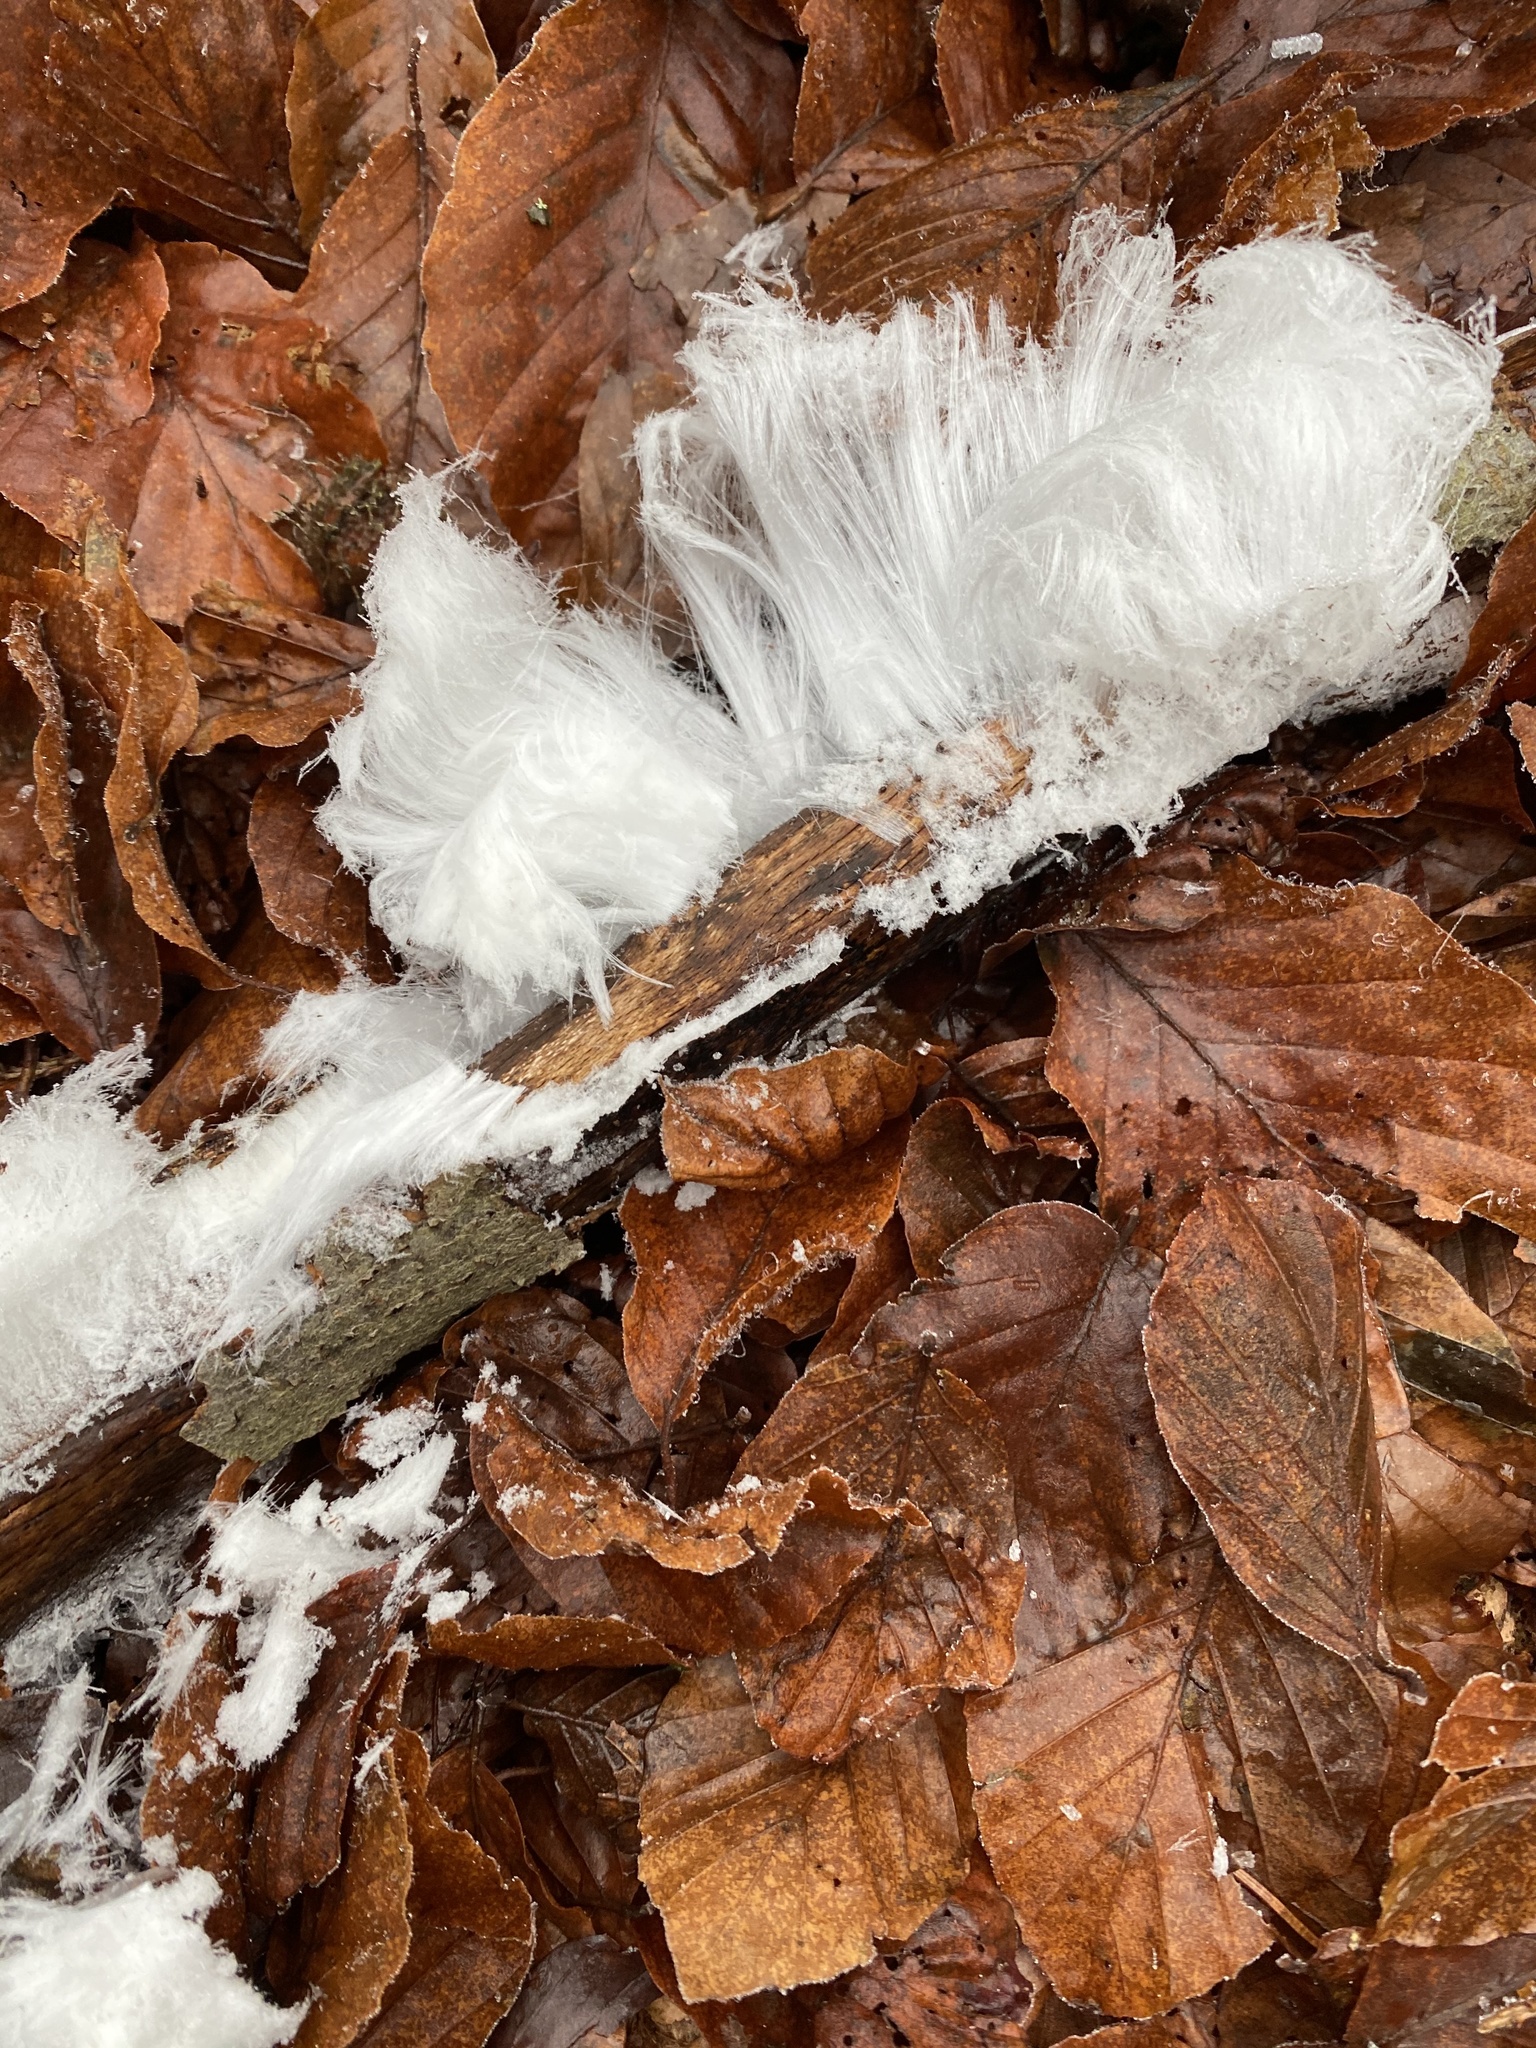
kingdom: Fungi
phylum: Basidiomycota
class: Agaricomycetes
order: Auriculariales
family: Auriculariaceae
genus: Exidiopsis
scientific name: Exidiopsis effusa
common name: Hair ice crust
